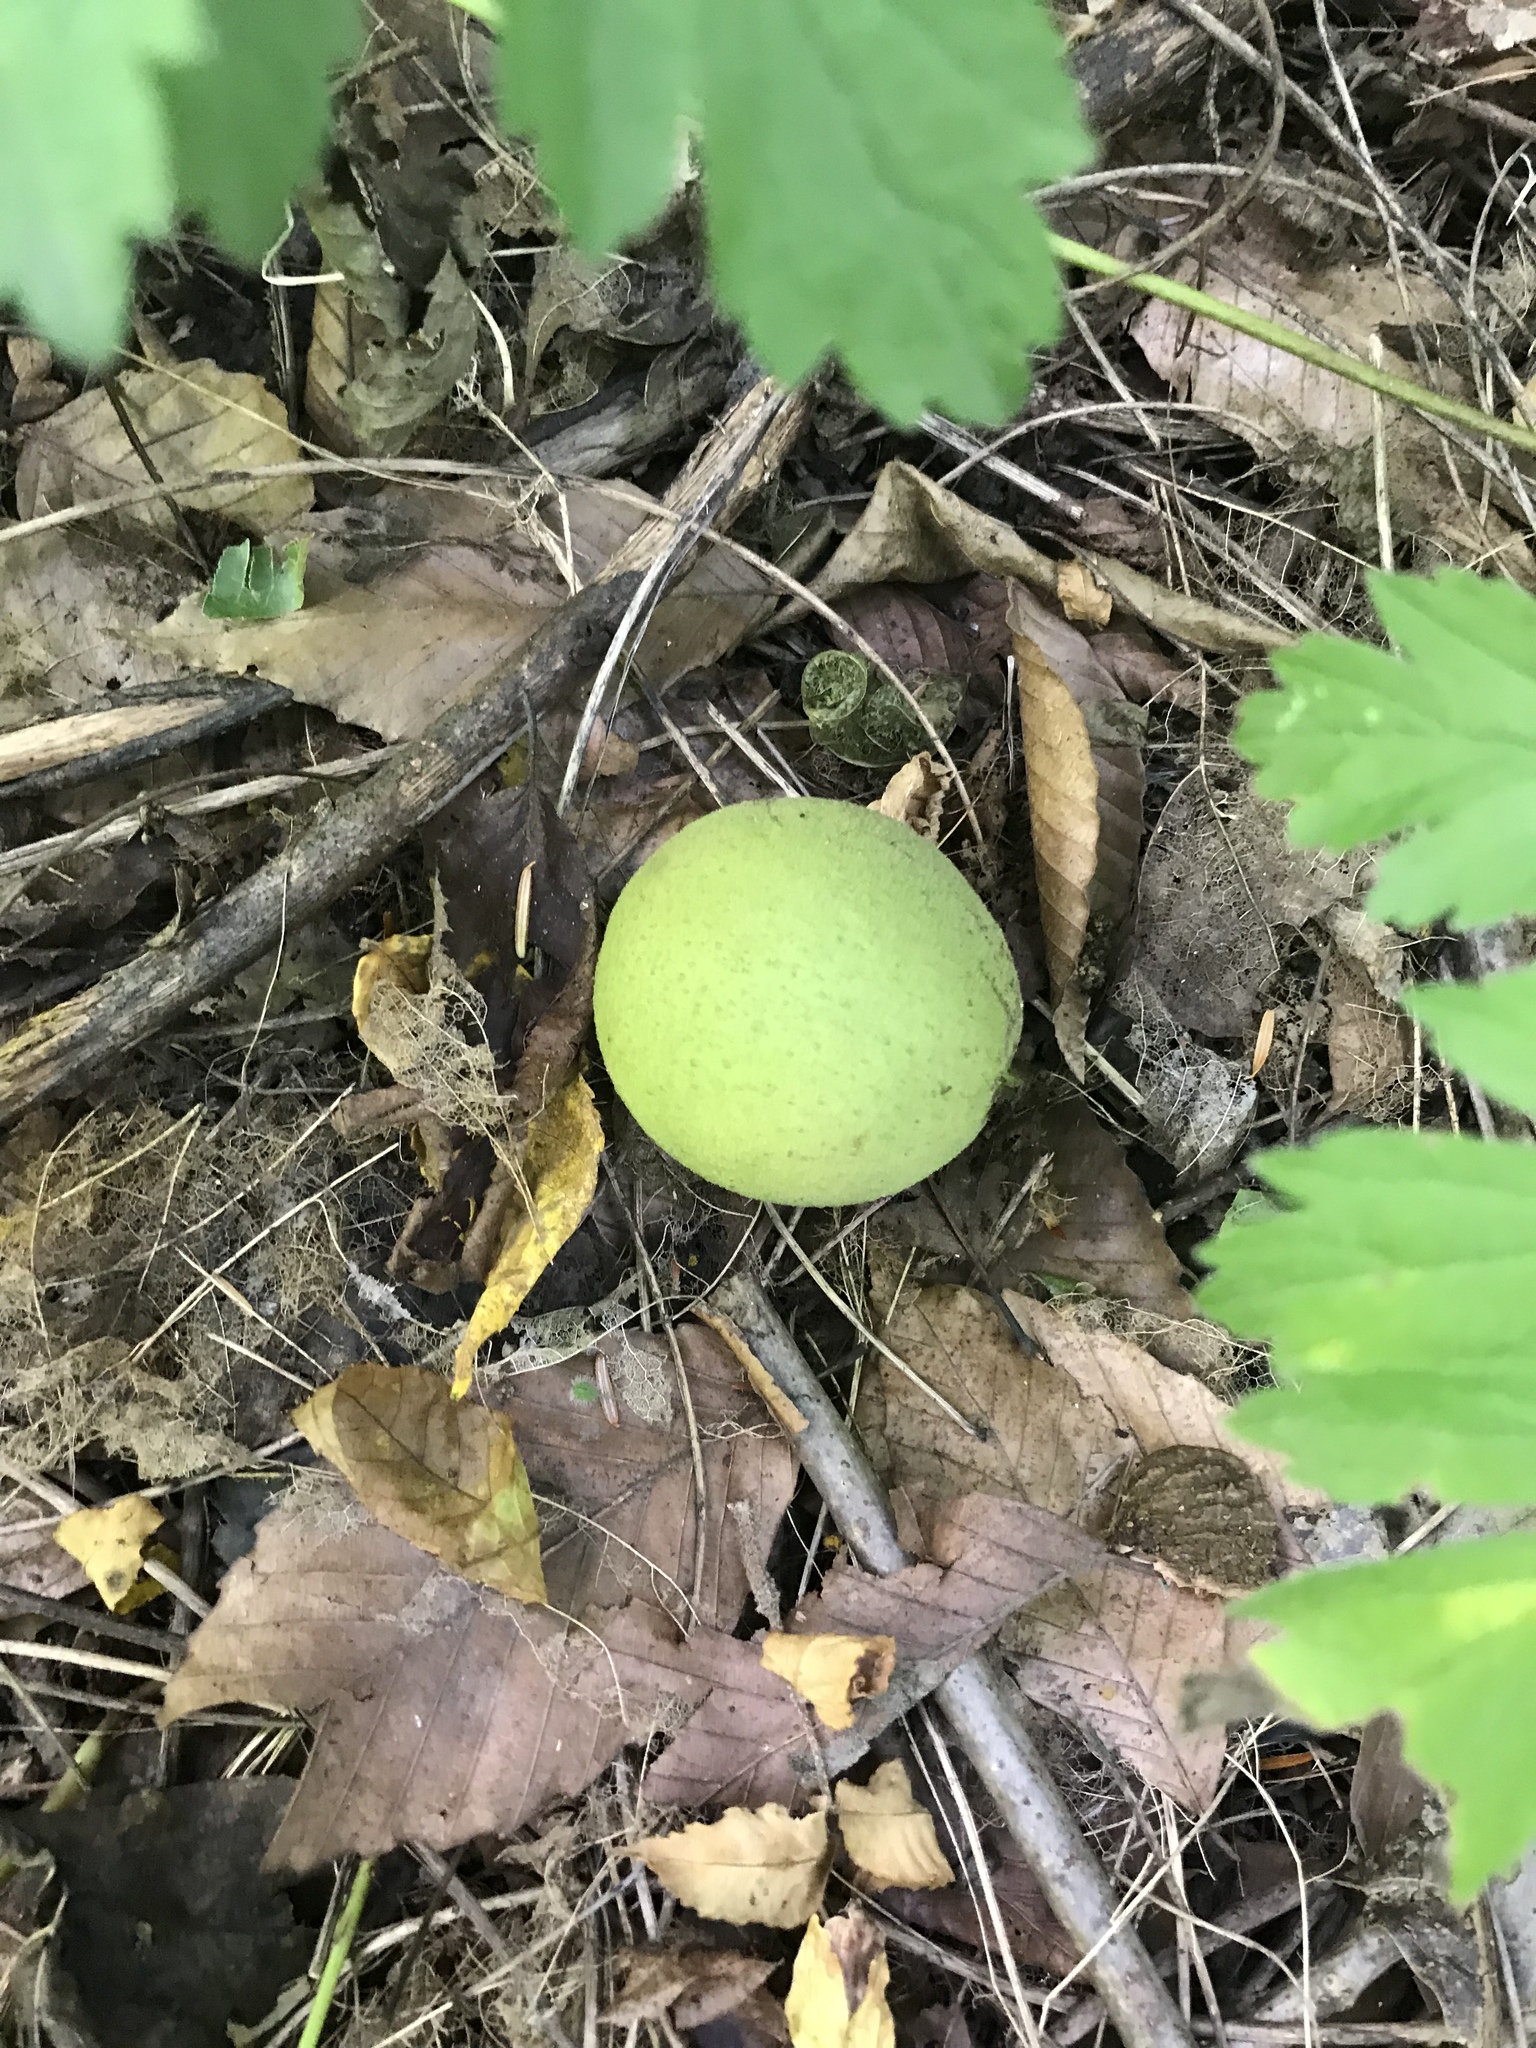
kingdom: Plantae
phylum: Tracheophyta
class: Magnoliopsida
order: Fagales
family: Juglandaceae
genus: Juglans
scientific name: Juglans nigra
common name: Black walnut
